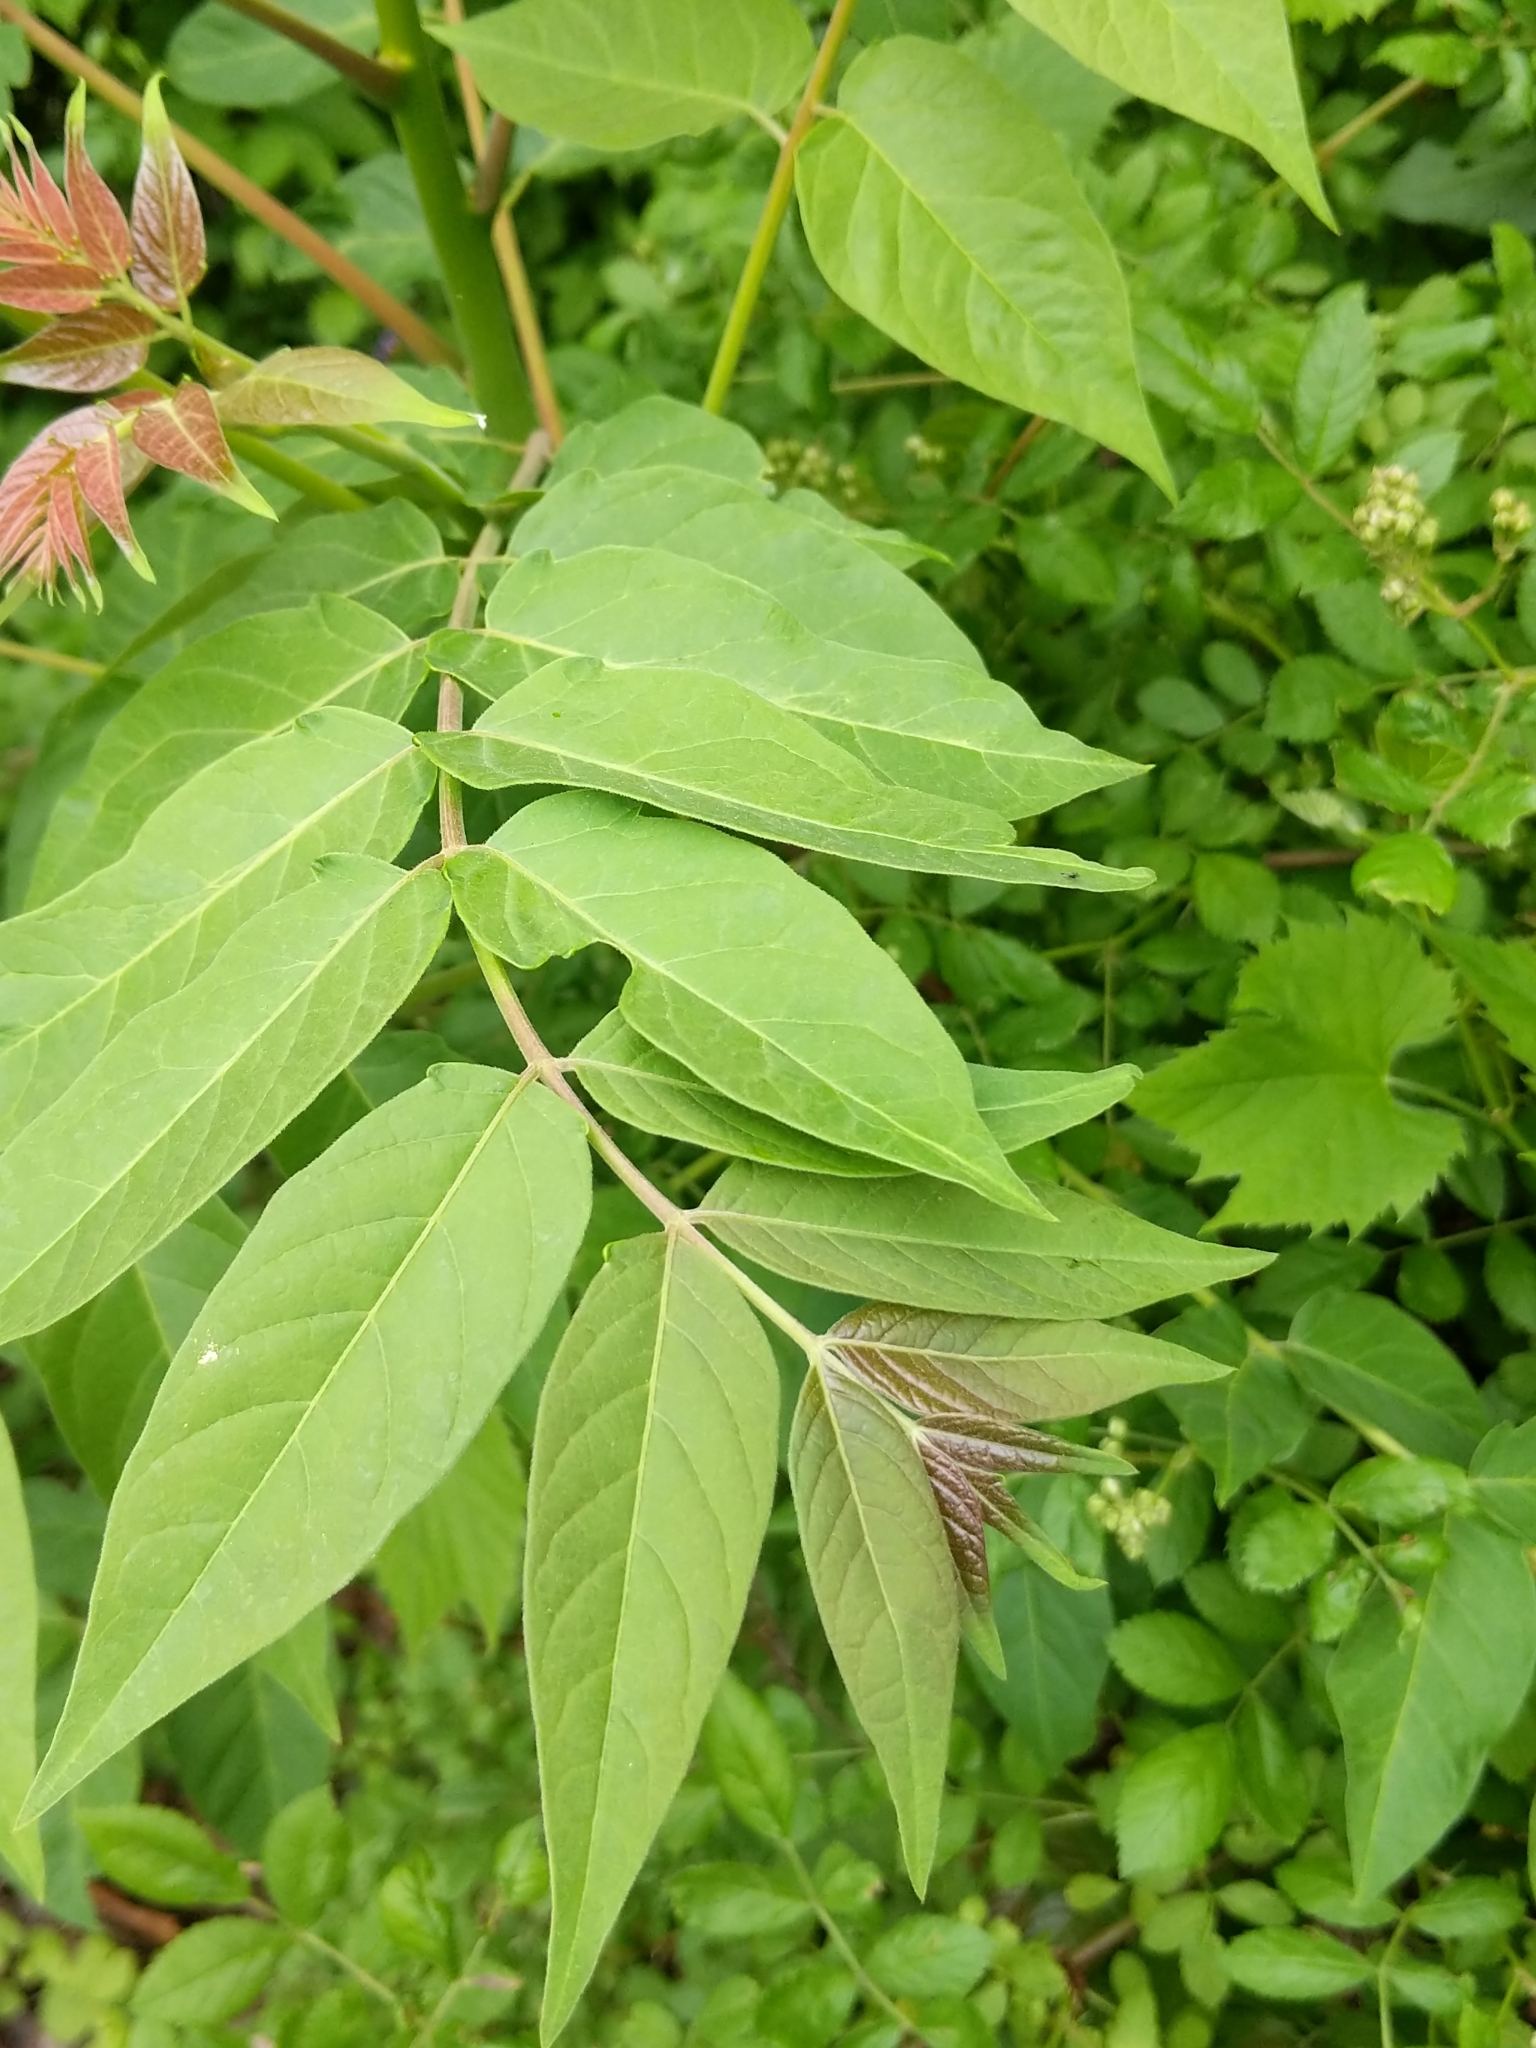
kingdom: Plantae
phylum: Tracheophyta
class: Magnoliopsida
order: Sapindales
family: Simaroubaceae
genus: Ailanthus
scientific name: Ailanthus altissima
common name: Tree-of-heaven
